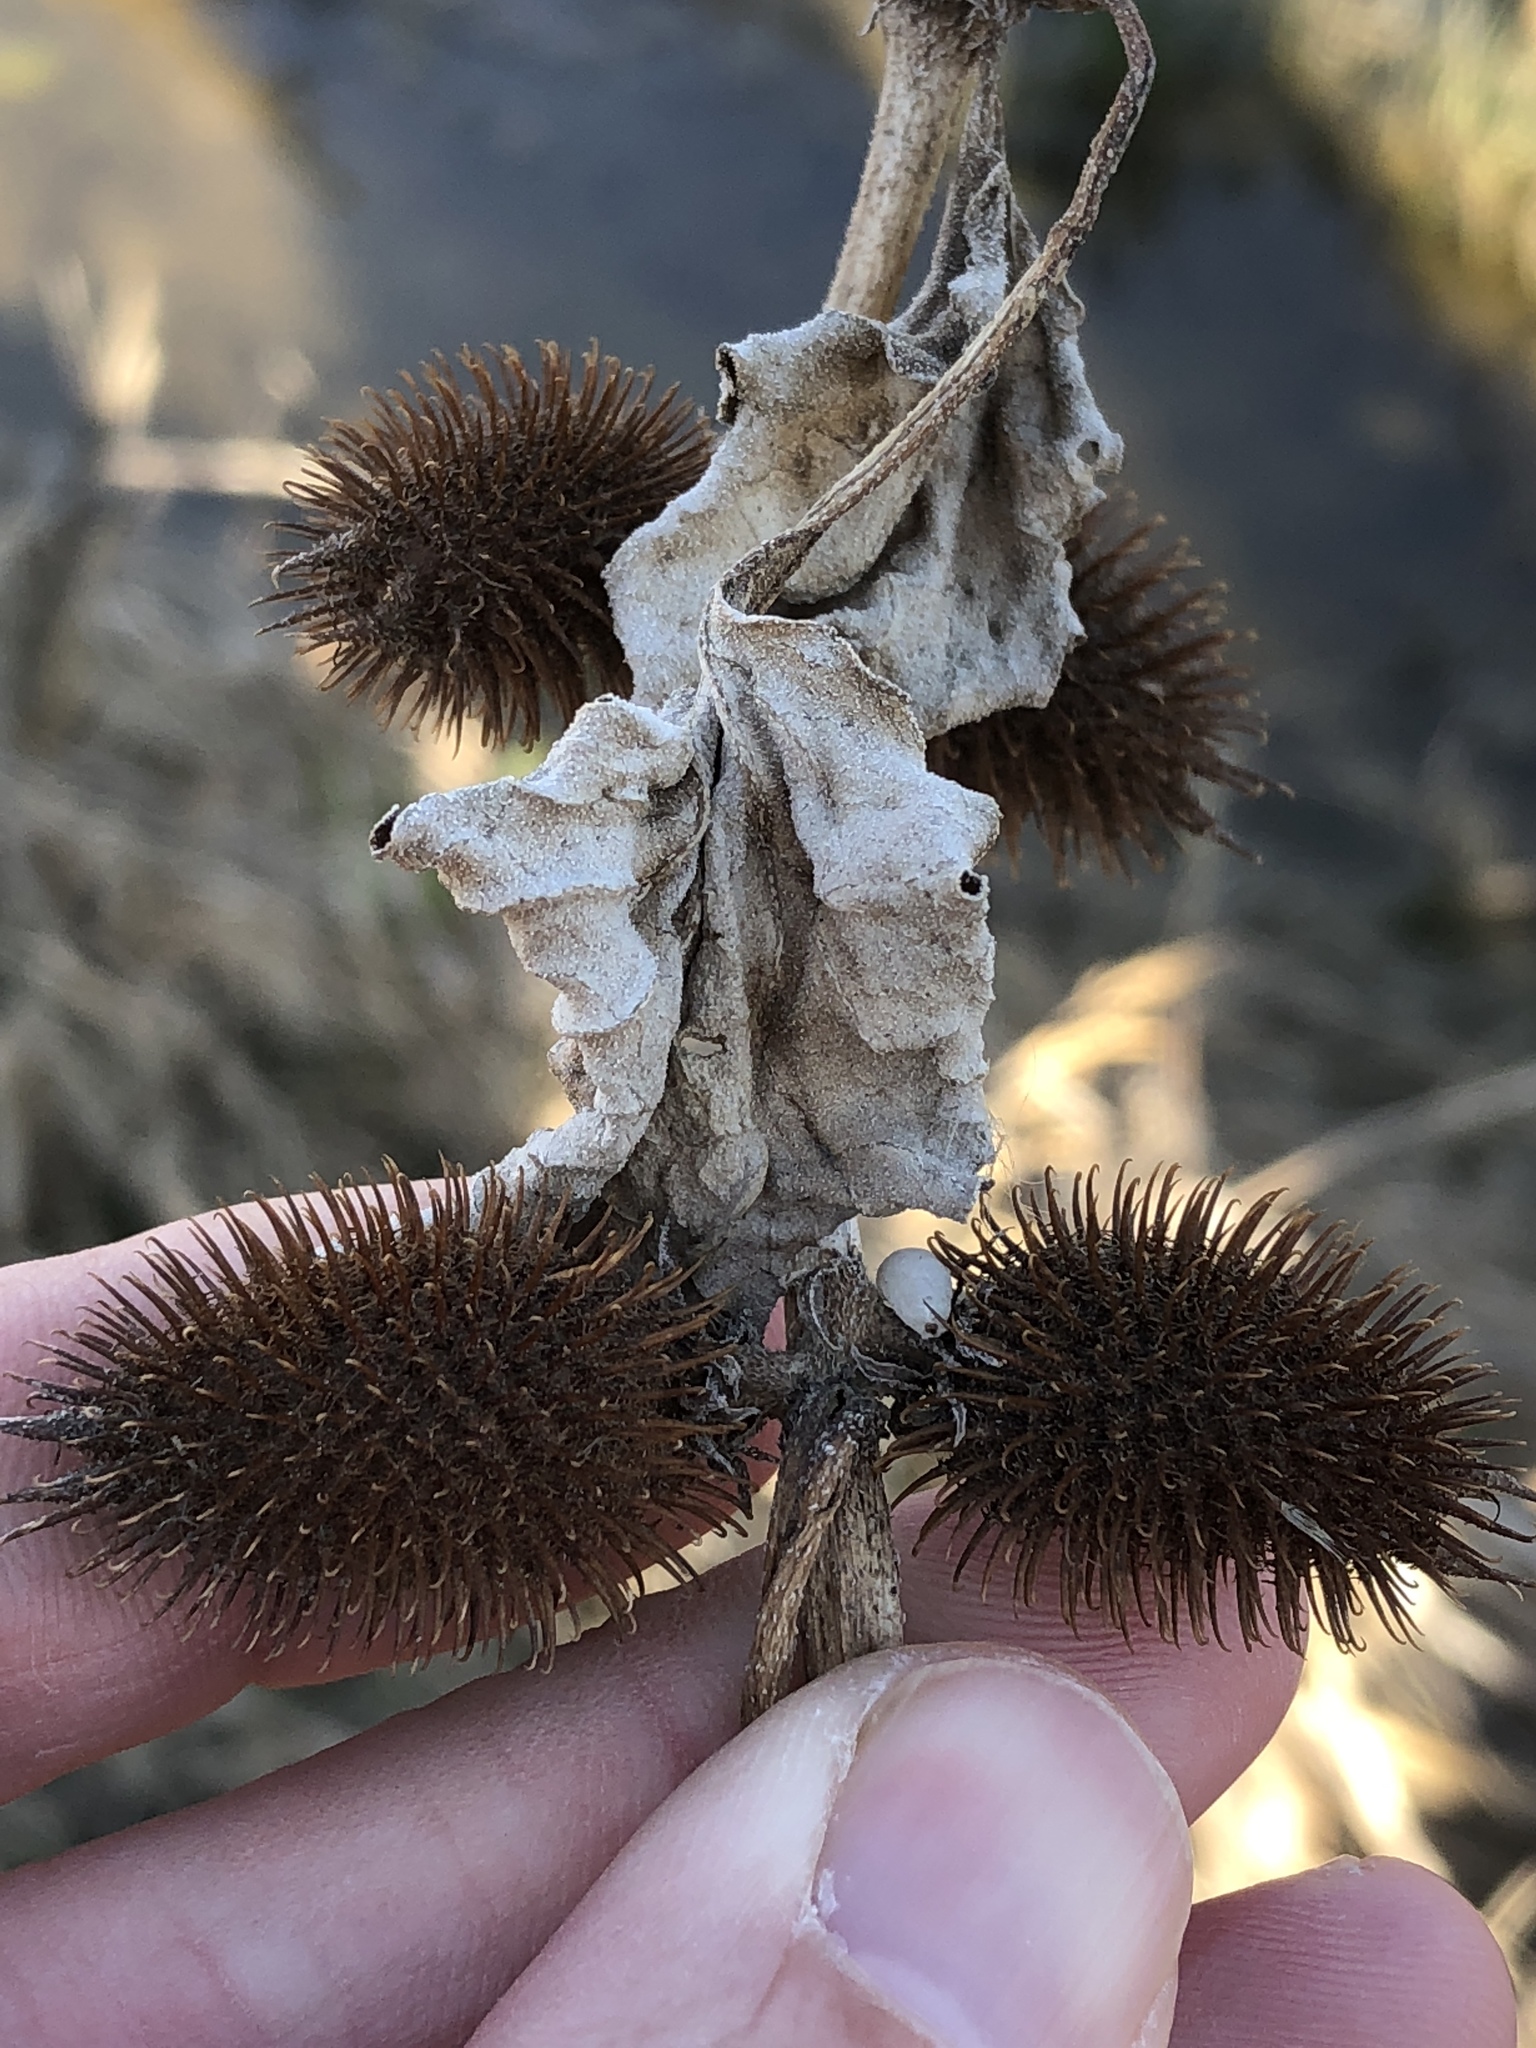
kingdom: Plantae
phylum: Tracheophyta
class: Magnoliopsida
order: Asterales
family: Asteraceae
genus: Xanthium
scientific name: Xanthium strumarium
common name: Rough cocklebur
